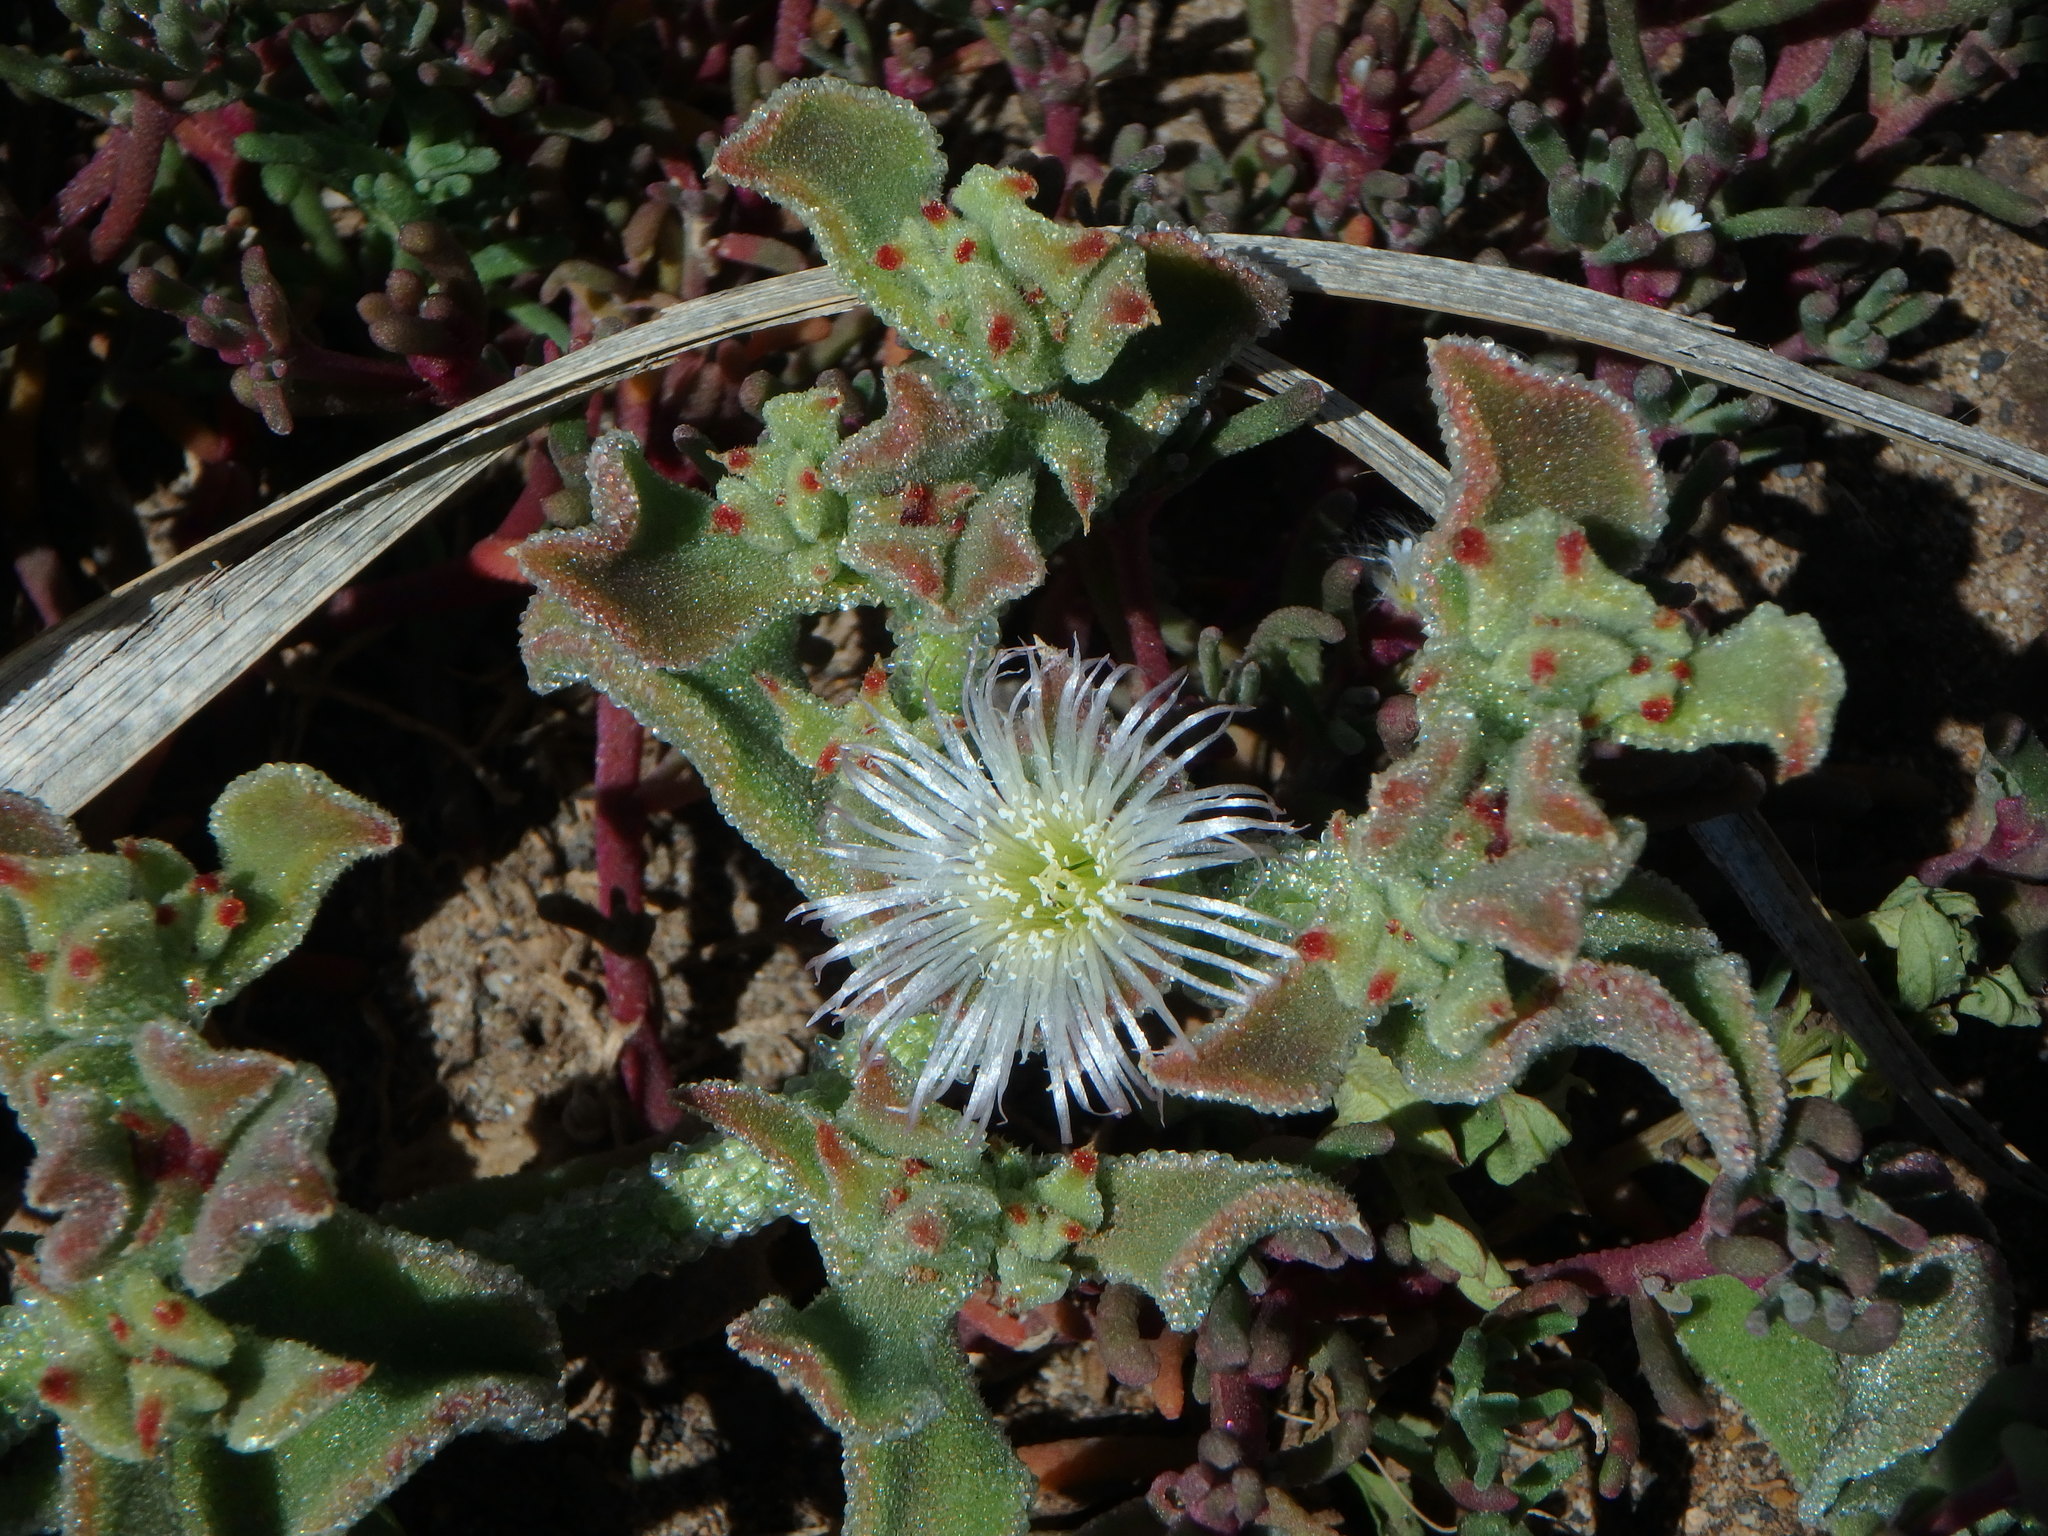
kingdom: Plantae
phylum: Tracheophyta
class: Magnoliopsida
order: Caryophyllales
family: Aizoaceae
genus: Mesembryanthemum
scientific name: Mesembryanthemum crystallinum
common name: Common iceplant
